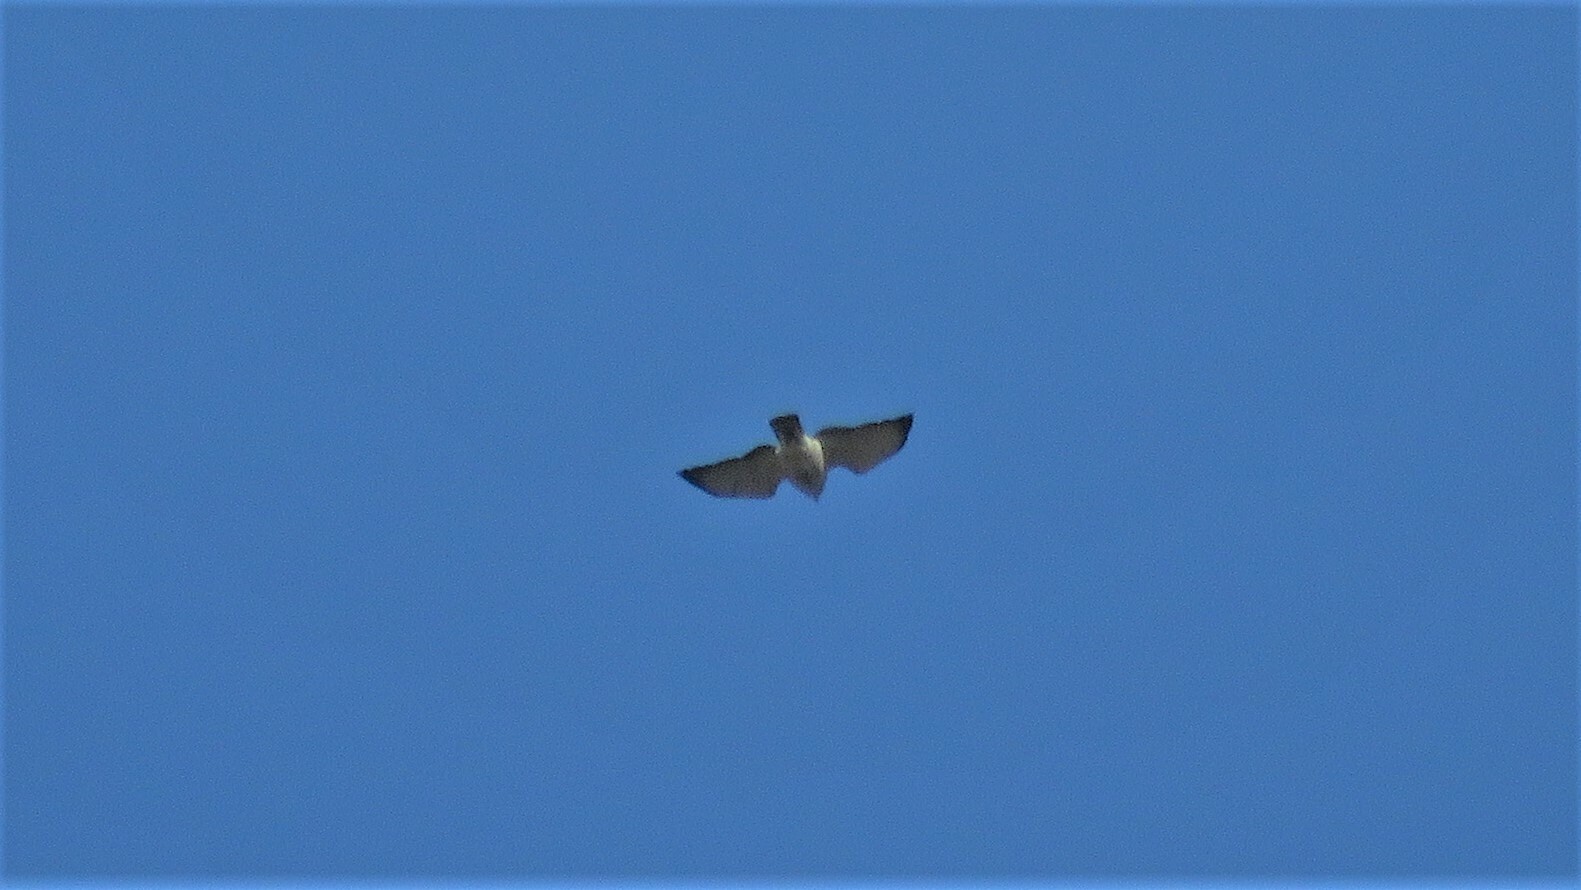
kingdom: Animalia
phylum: Chordata
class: Aves
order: Accipitriformes
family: Accipitridae
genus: Buteo
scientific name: Buteo platypterus
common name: Broad-winged hawk
